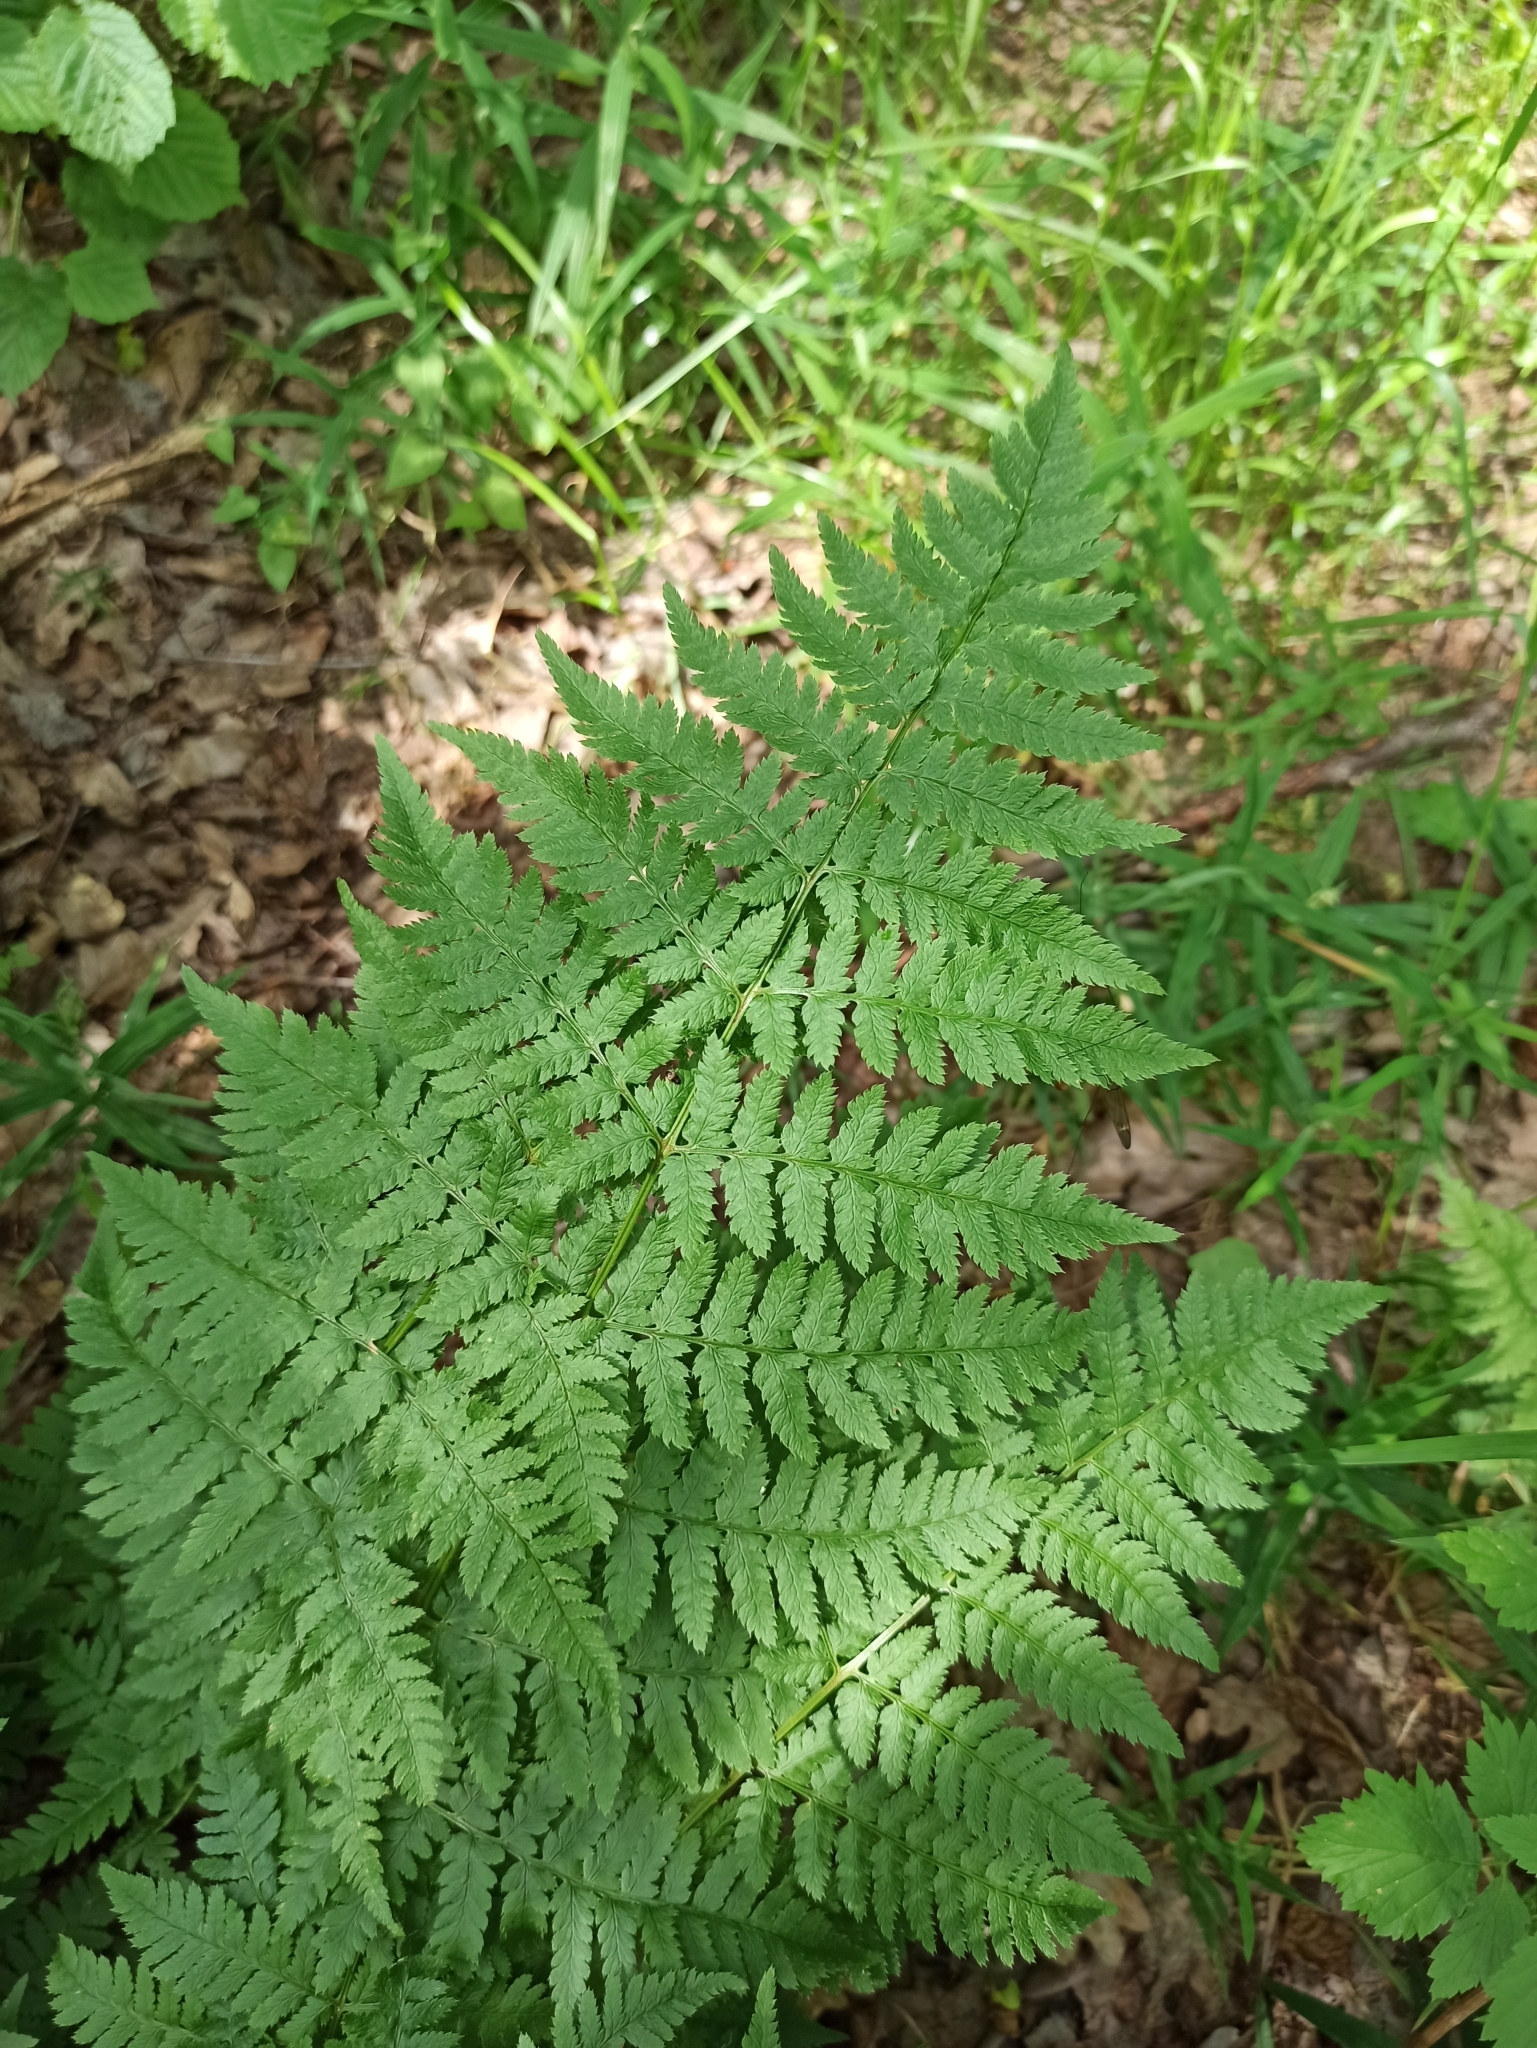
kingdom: Plantae
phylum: Tracheophyta
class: Polypodiopsida
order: Polypodiales
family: Dryopteridaceae
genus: Dryopteris
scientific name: Dryopteris carthusiana
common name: Narrow buckler-fern
